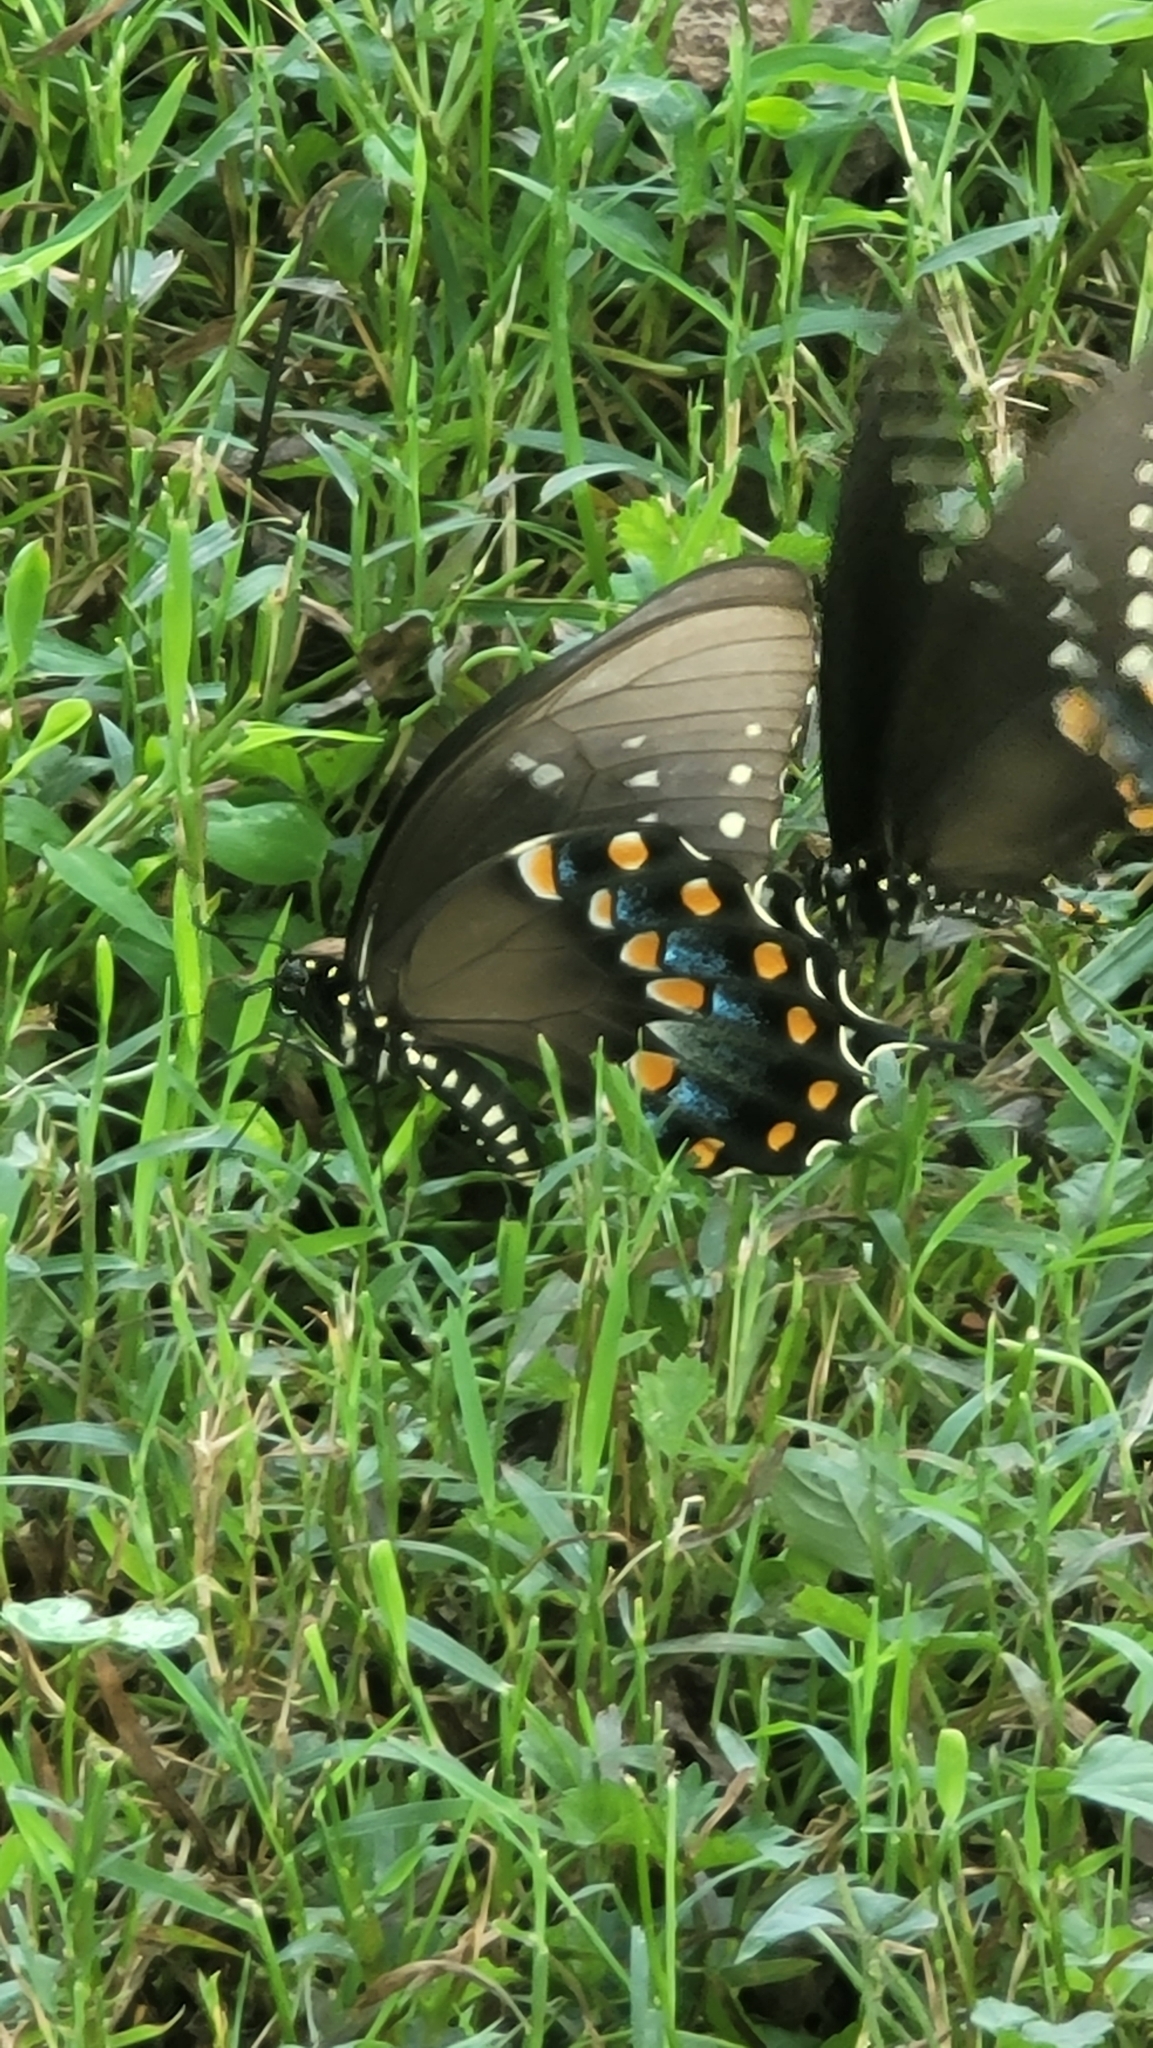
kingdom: Animalia
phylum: Arthropoda
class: Insecta
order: Lepidoptera
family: Papilionidae
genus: Papilio
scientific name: Papilio troilus
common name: Spicebush swallowtail
